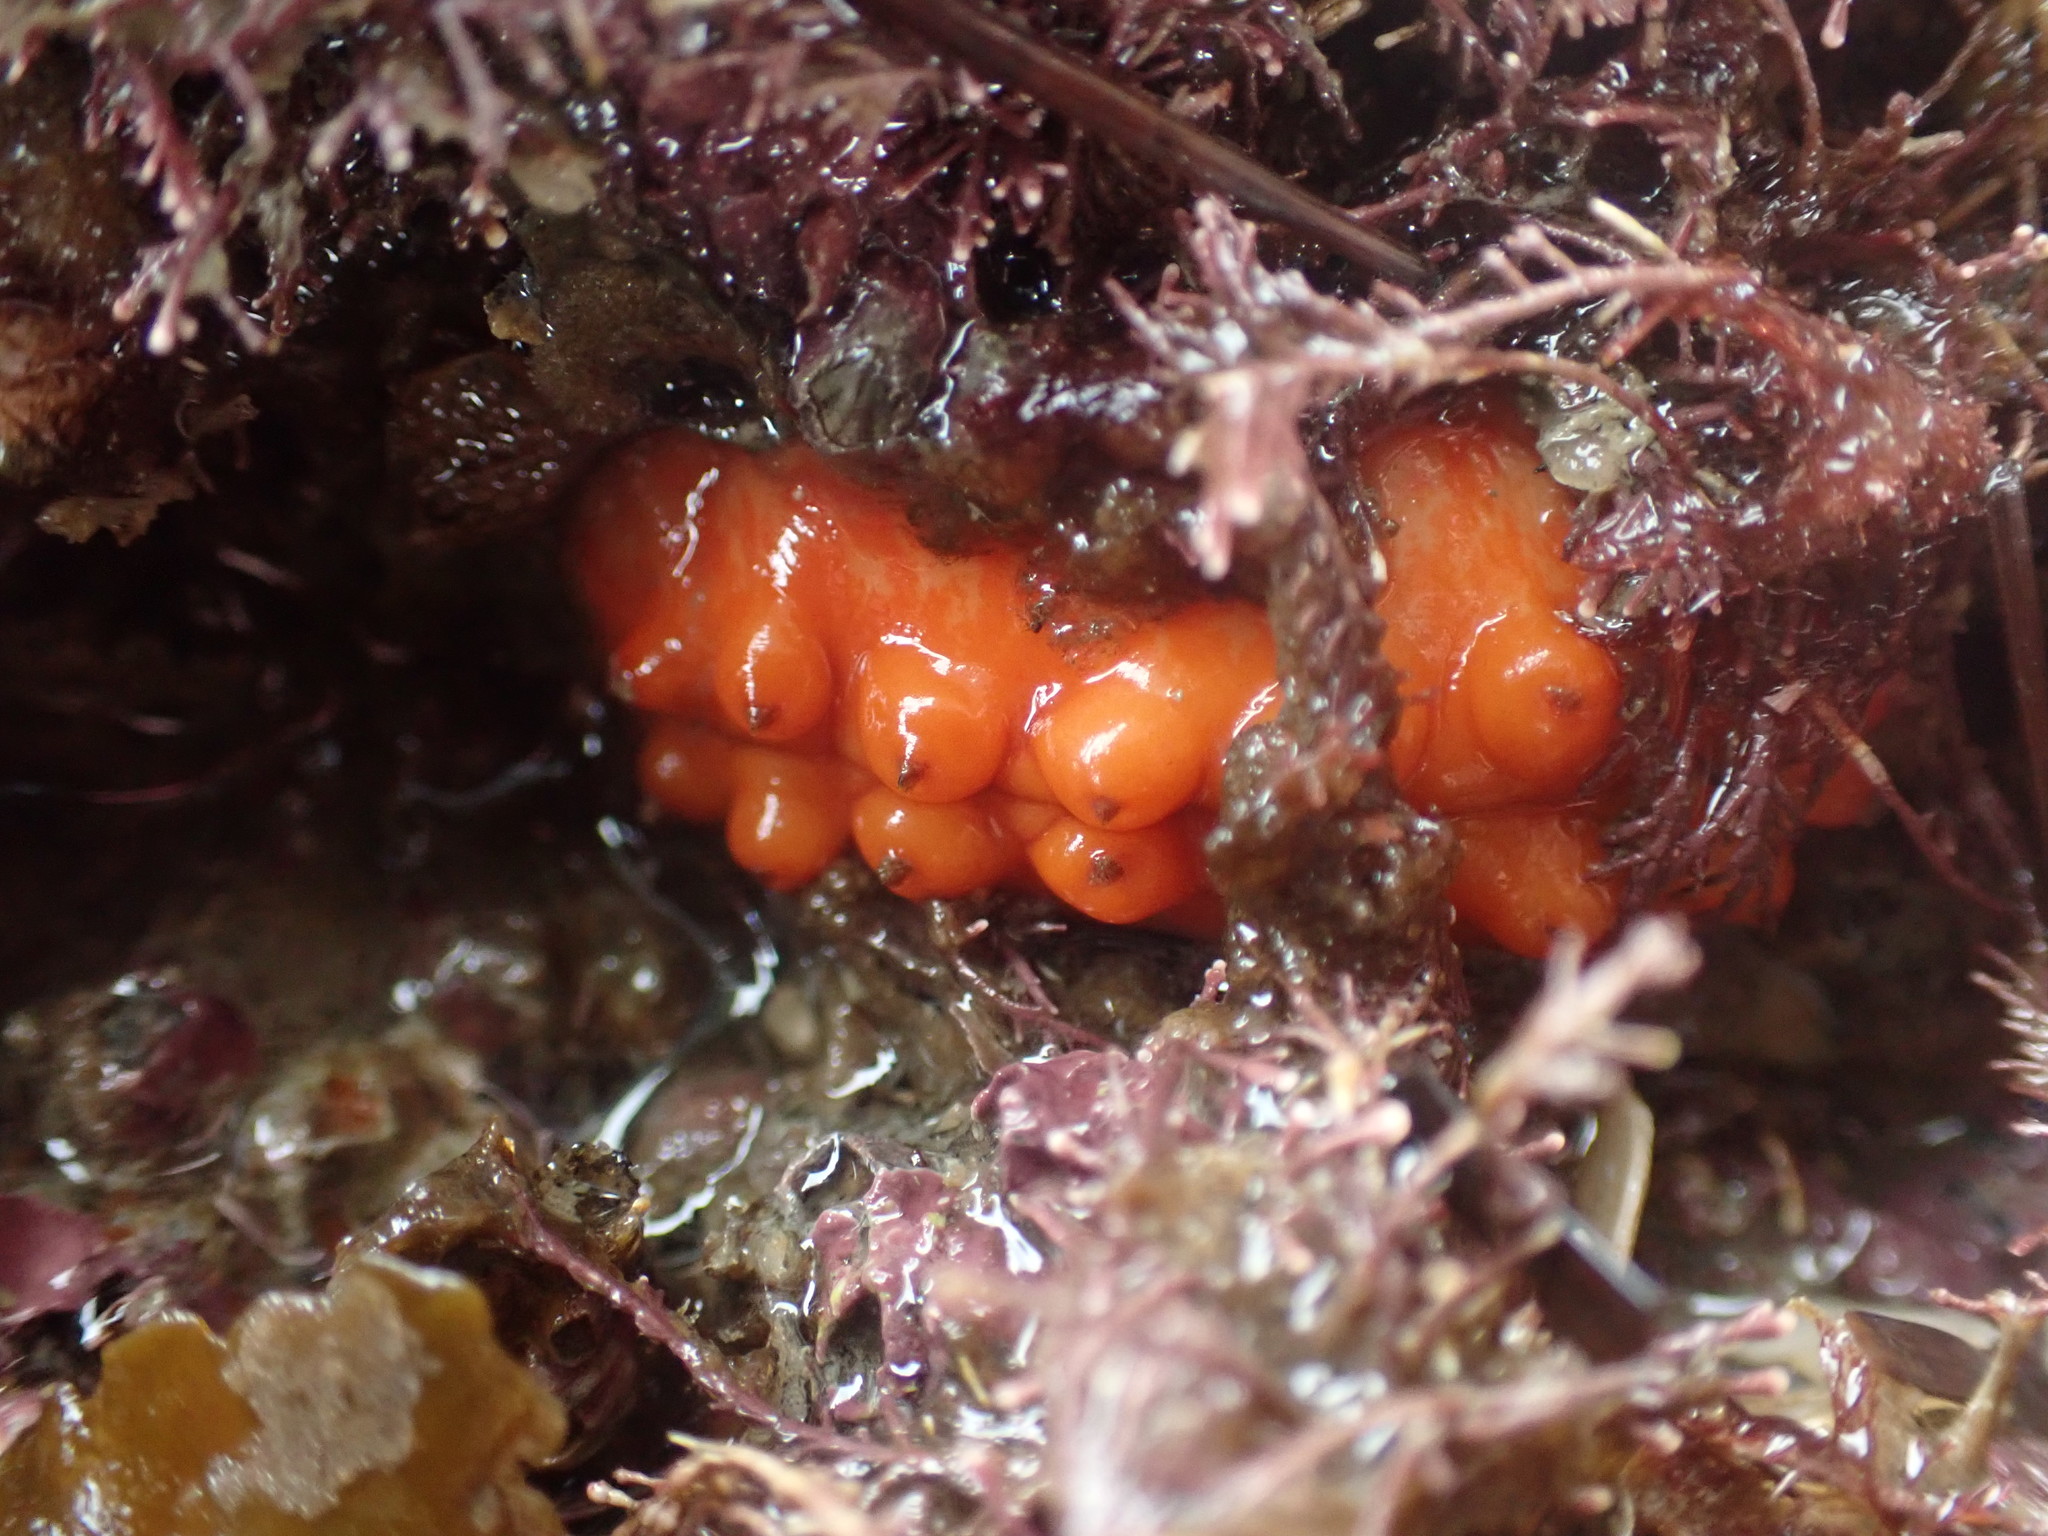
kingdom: Animalia
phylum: Mollusca
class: Polyplacophora
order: Chitonida
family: Acanthochitonidae
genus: Cryptoconchus
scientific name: Cryptoconchus porosus
